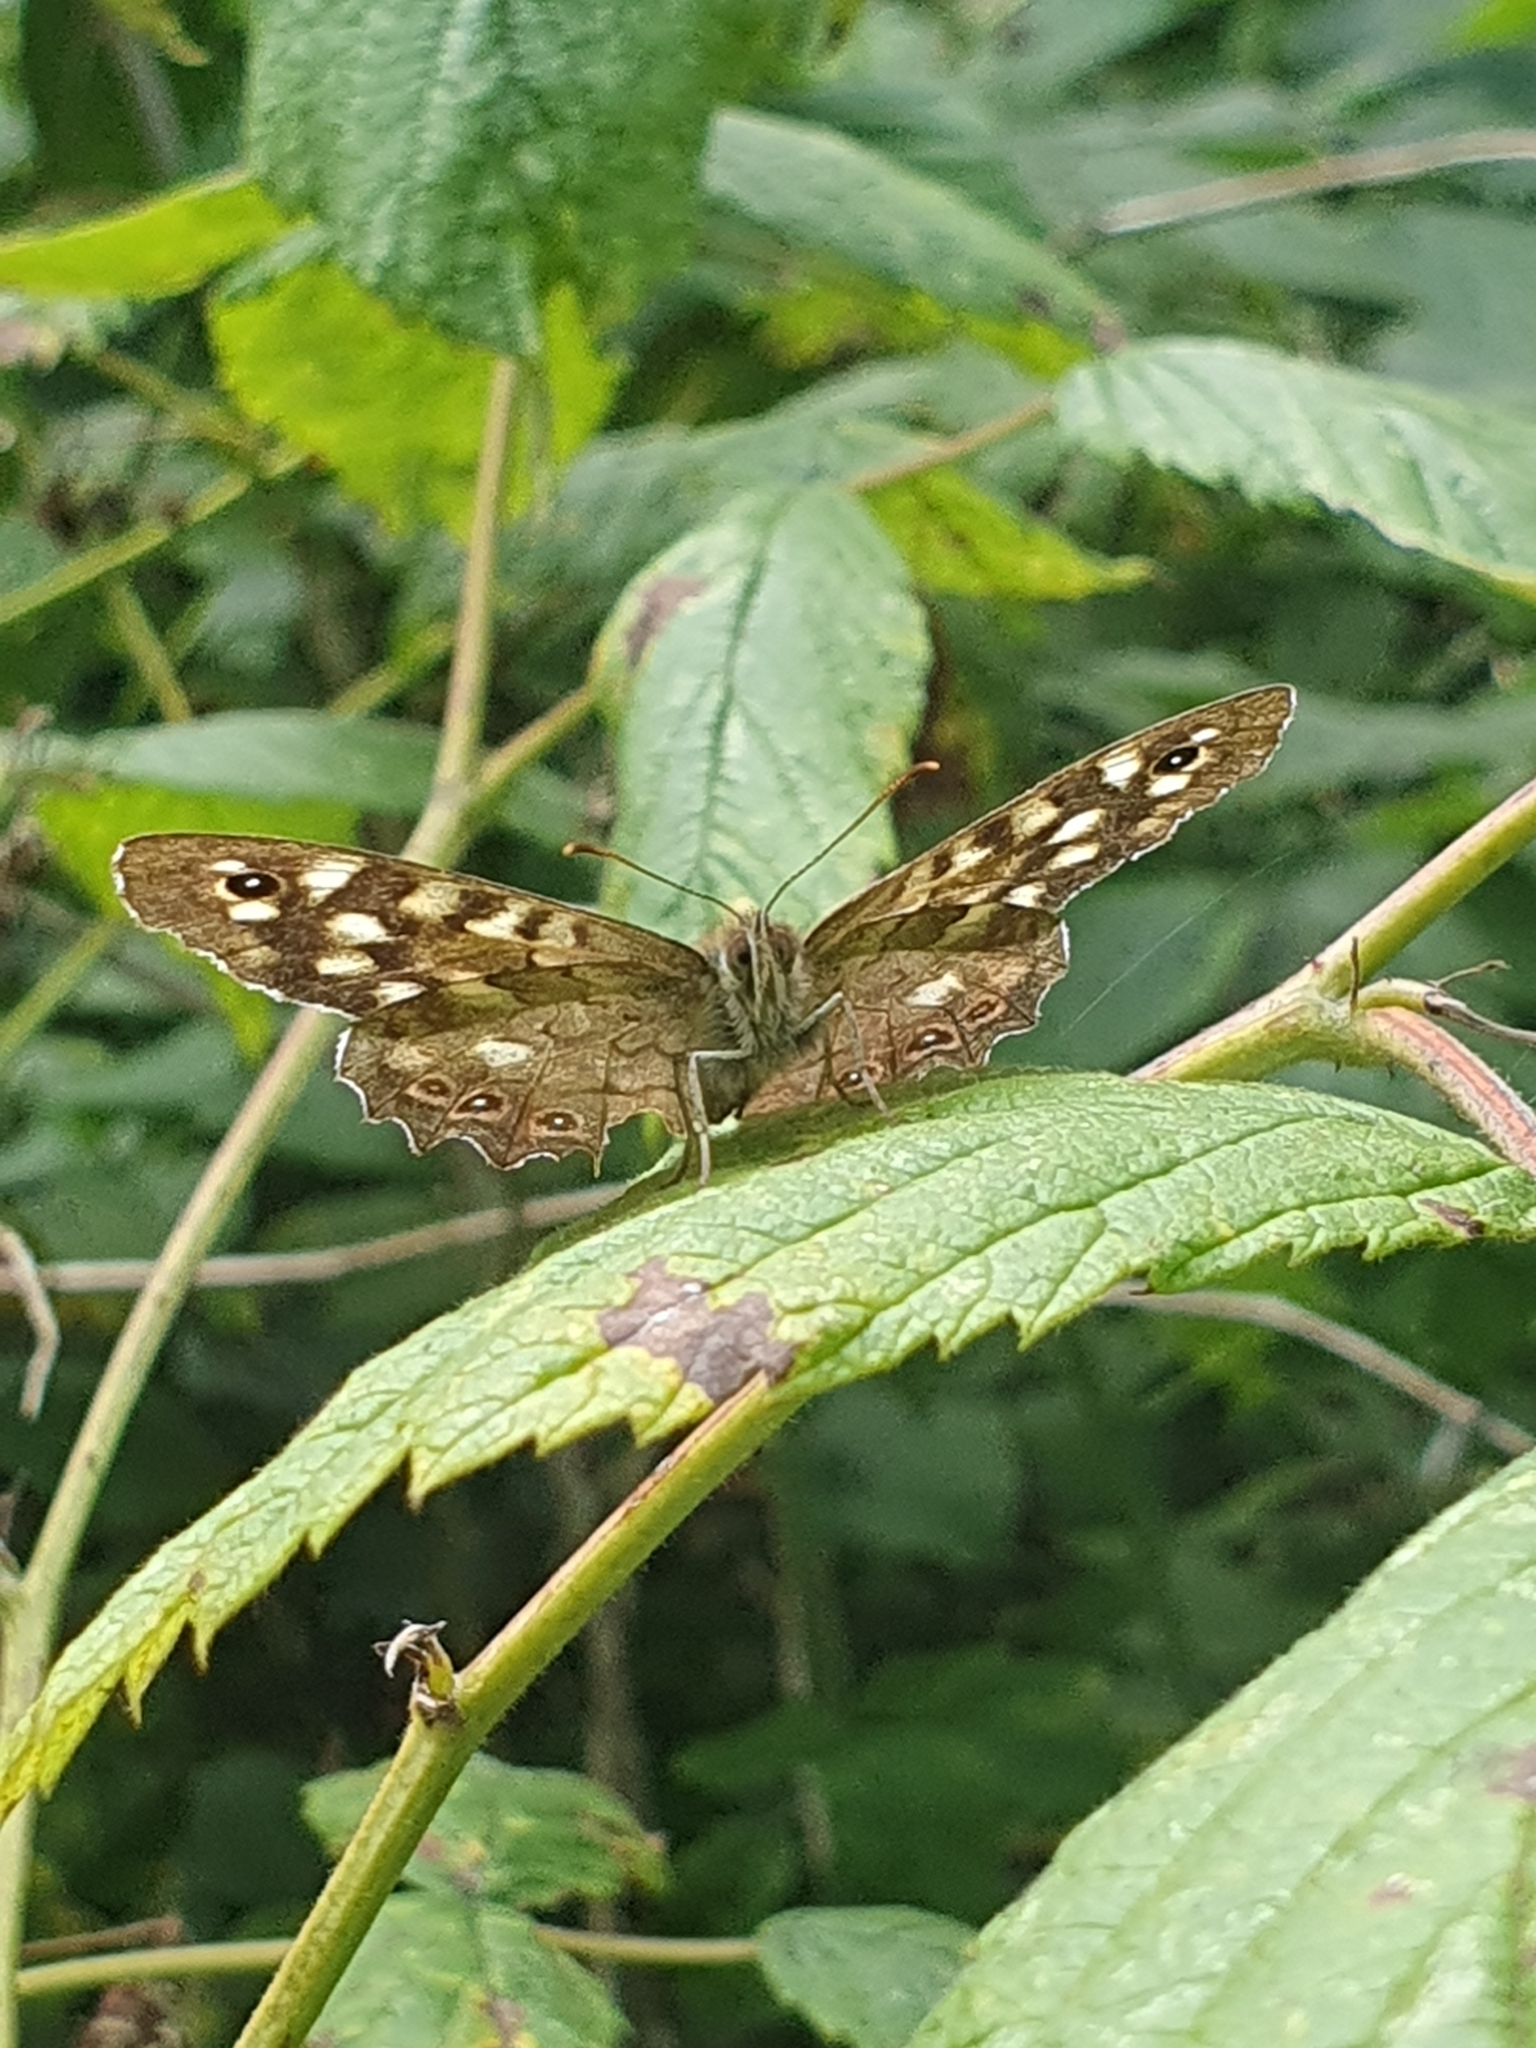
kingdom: Animalia
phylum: Arthropoda
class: Insecta
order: Lepidoptera
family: Nymphalidae
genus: Pararge
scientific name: Pararge aegeria
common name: Speckled wood
